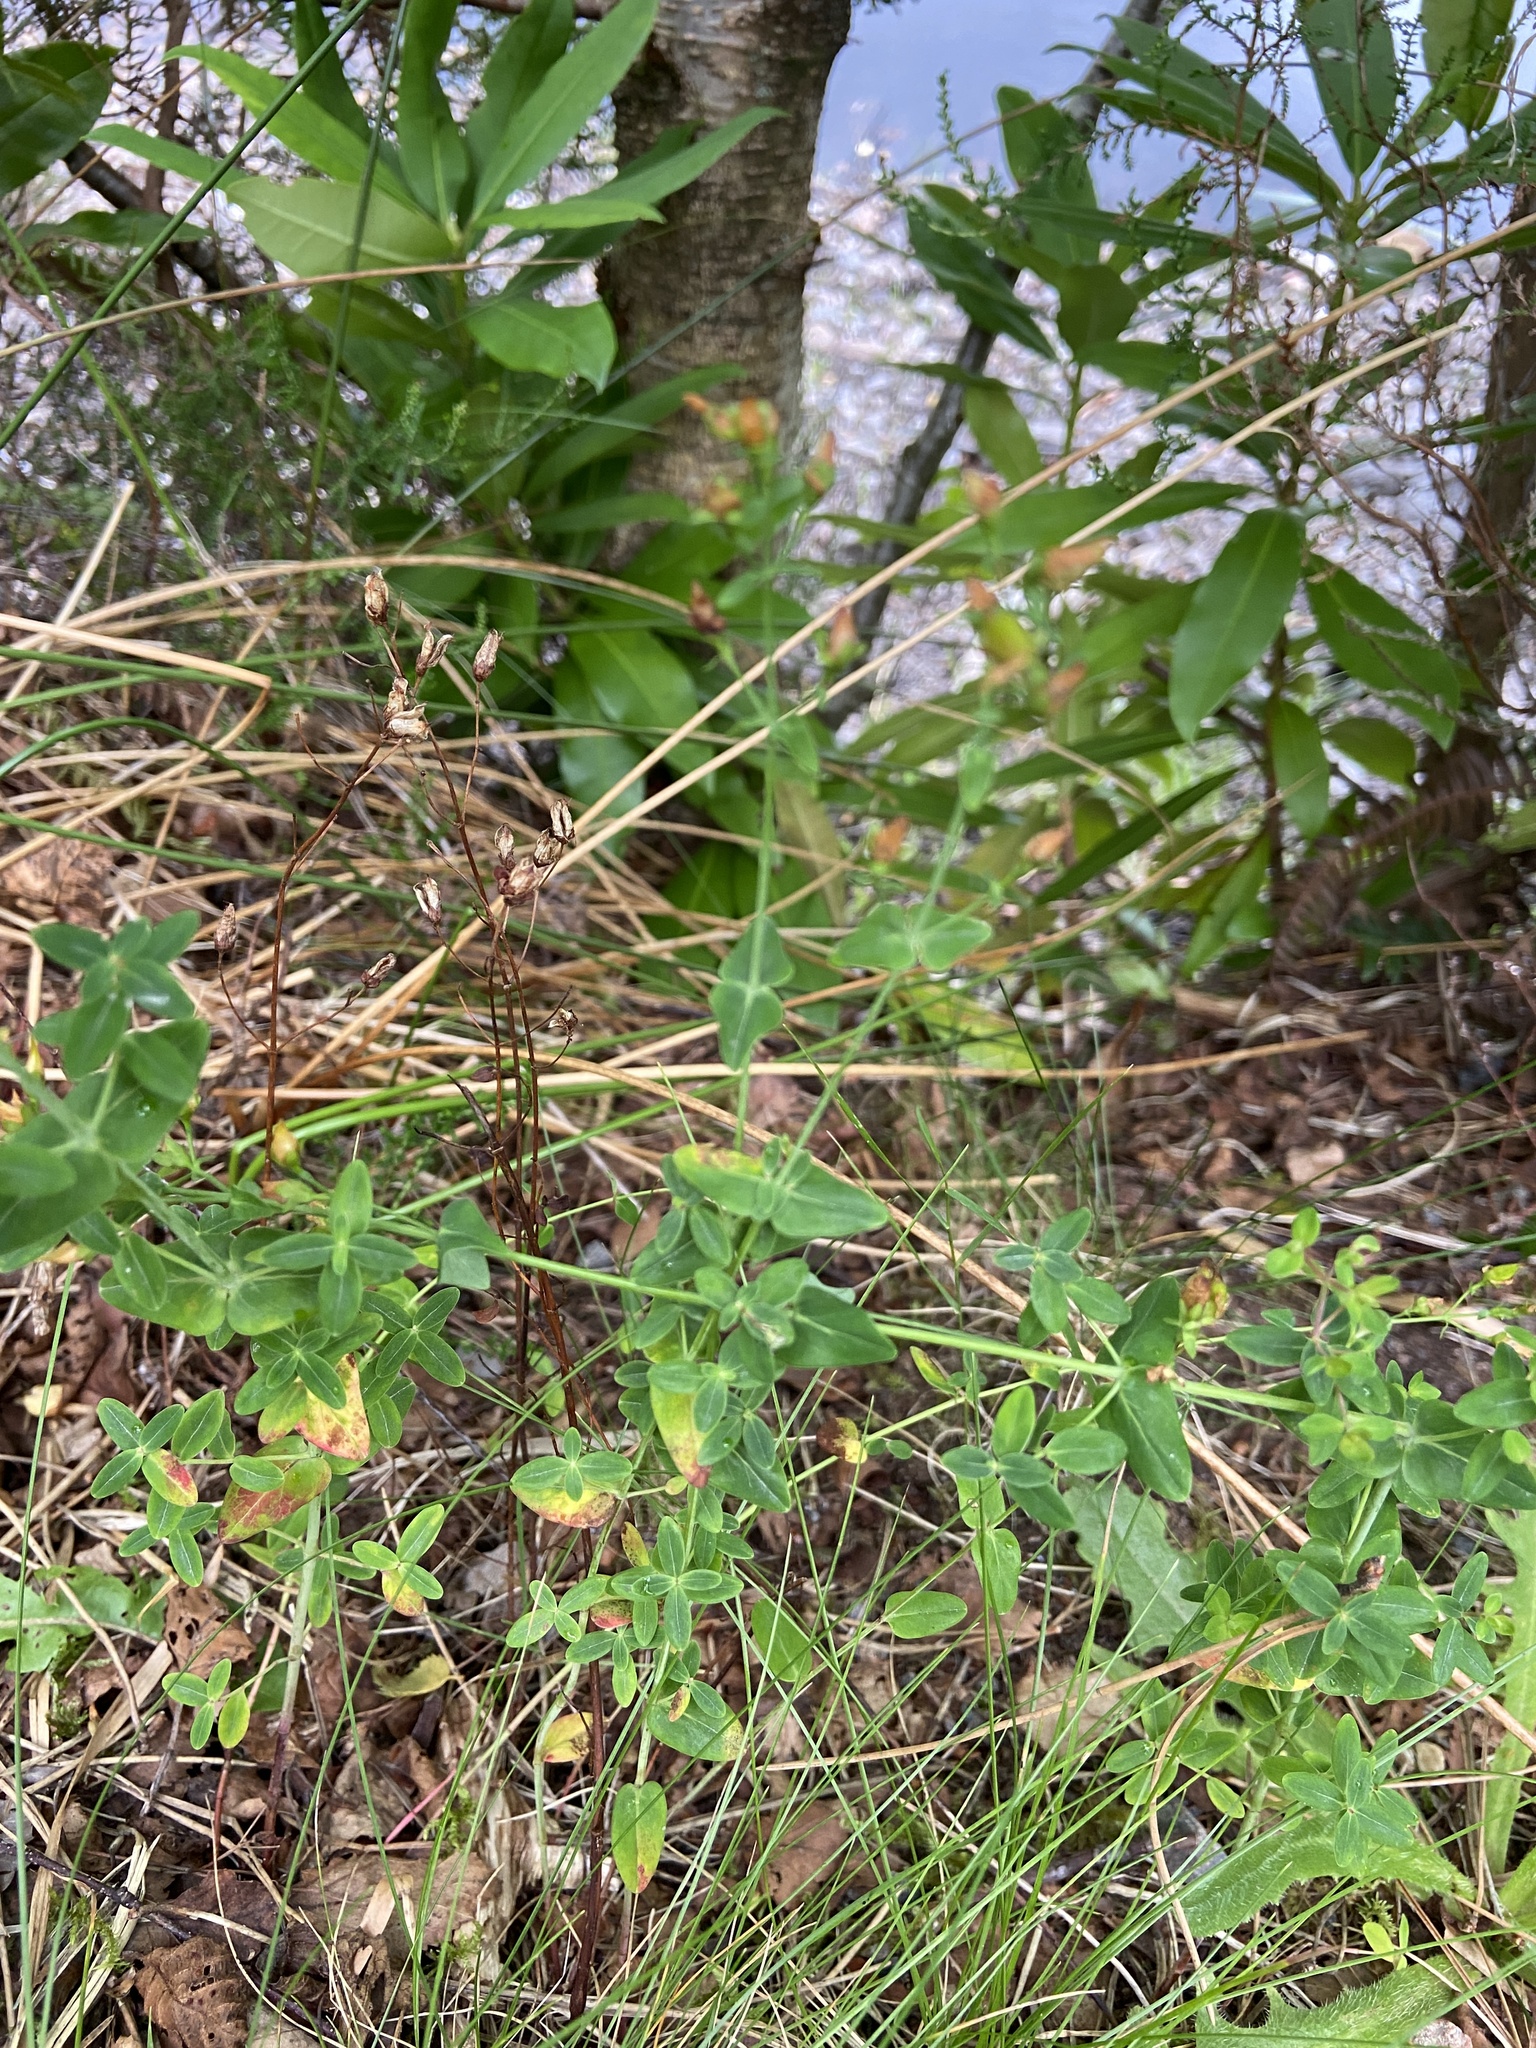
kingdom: Plantae
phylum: Tracheophyta
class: Magnoliopsida
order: Malpighiales
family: Hypericaceae
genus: Hypericum
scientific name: Hypericum pulchrum
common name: Slender st. john's-wort
